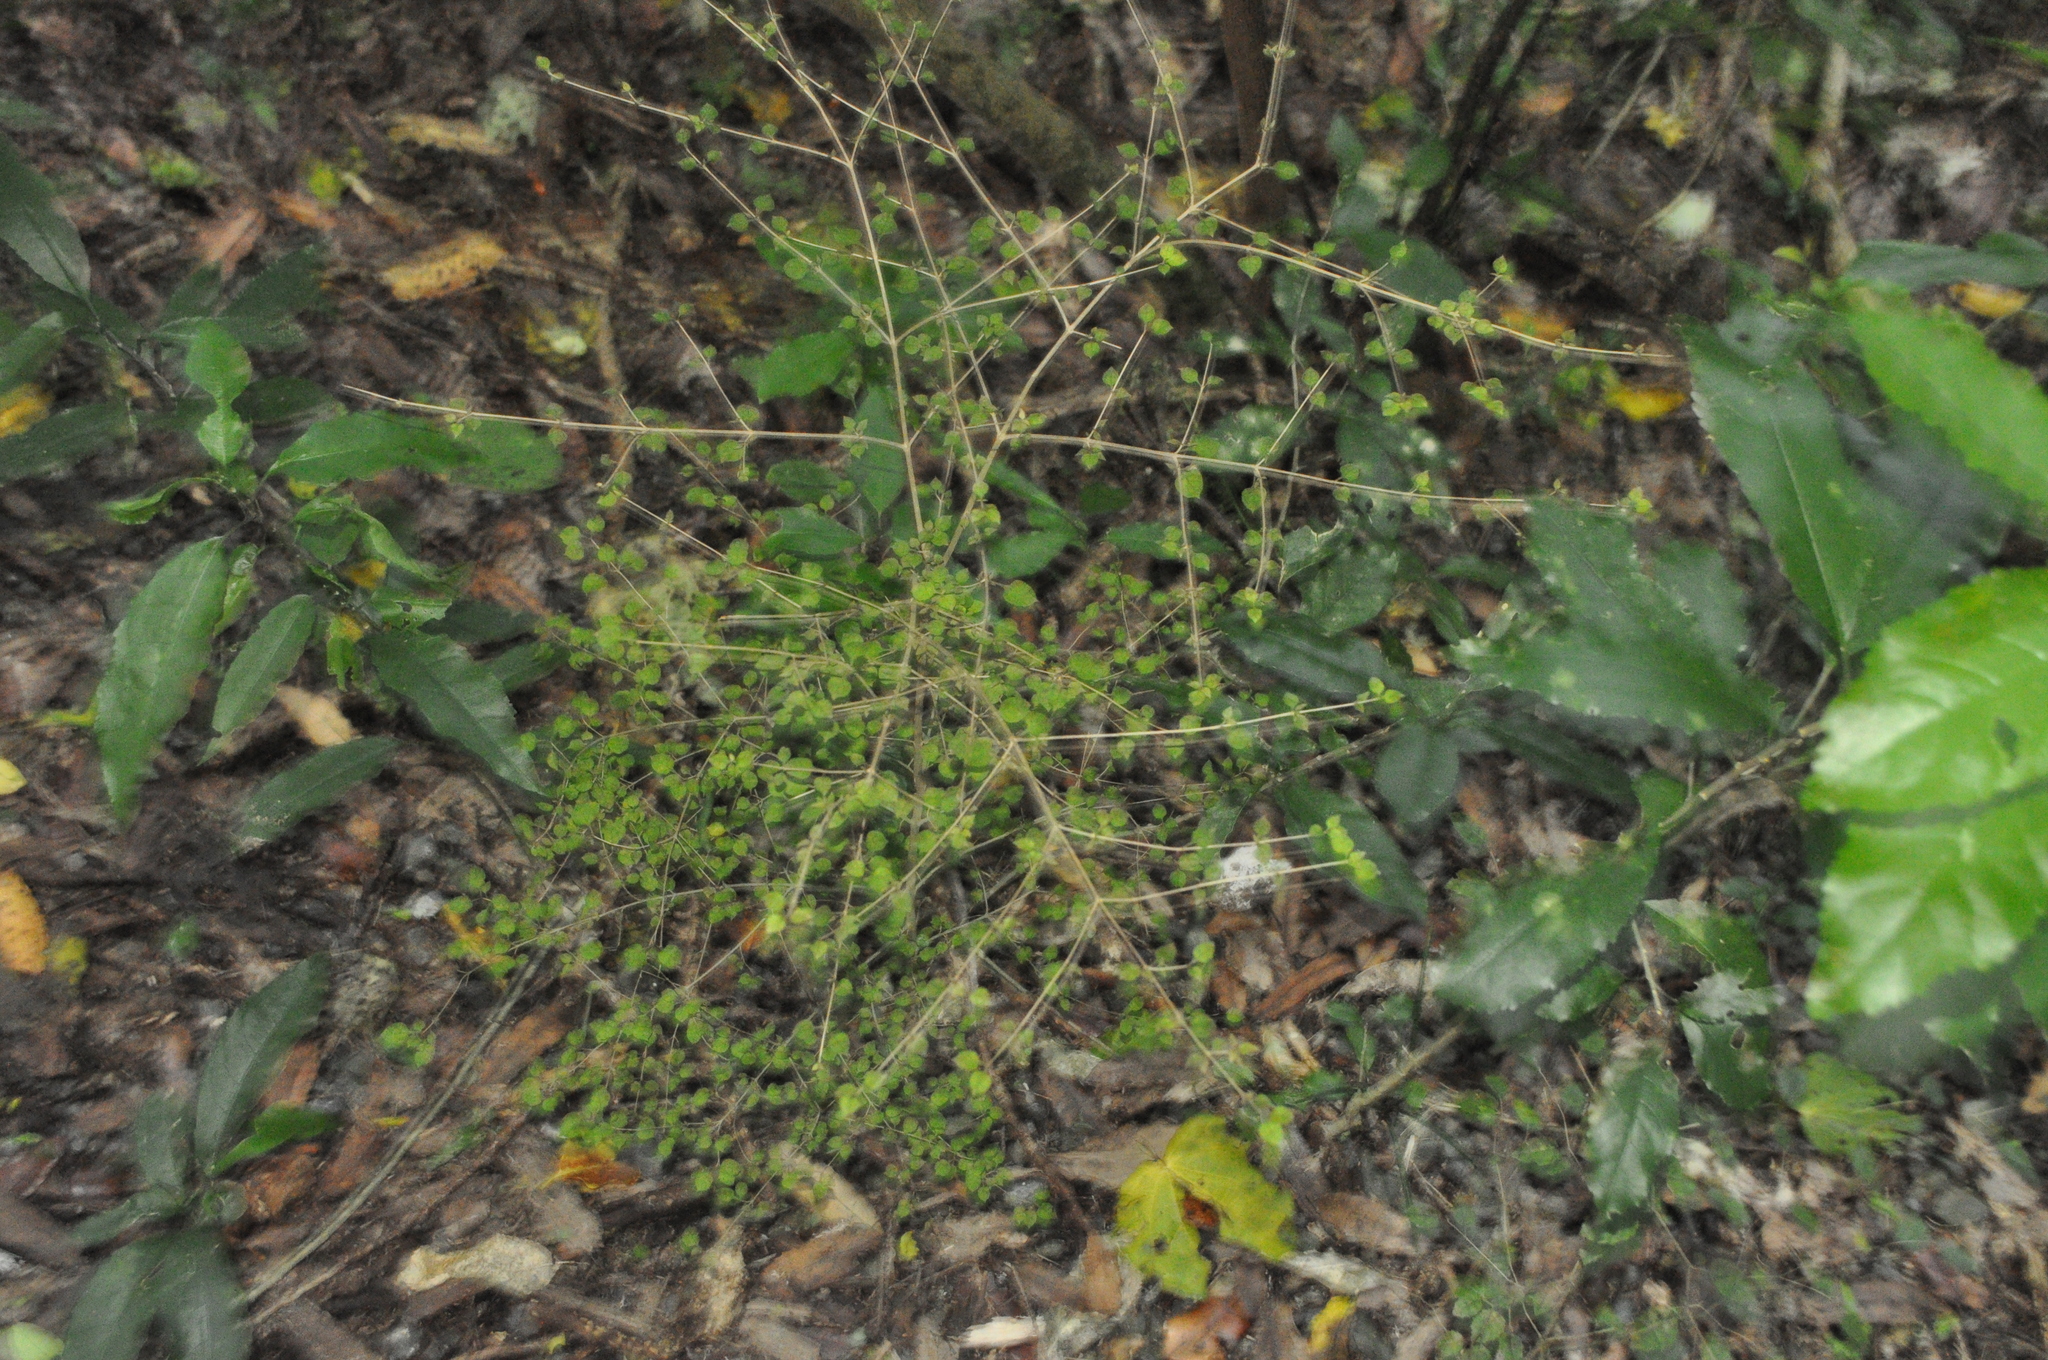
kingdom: Plantae
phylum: Tracheophyta
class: Magnoliopsida
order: Gentianales
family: Rubiaceae
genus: Coprosma
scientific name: Coprosma areolata
